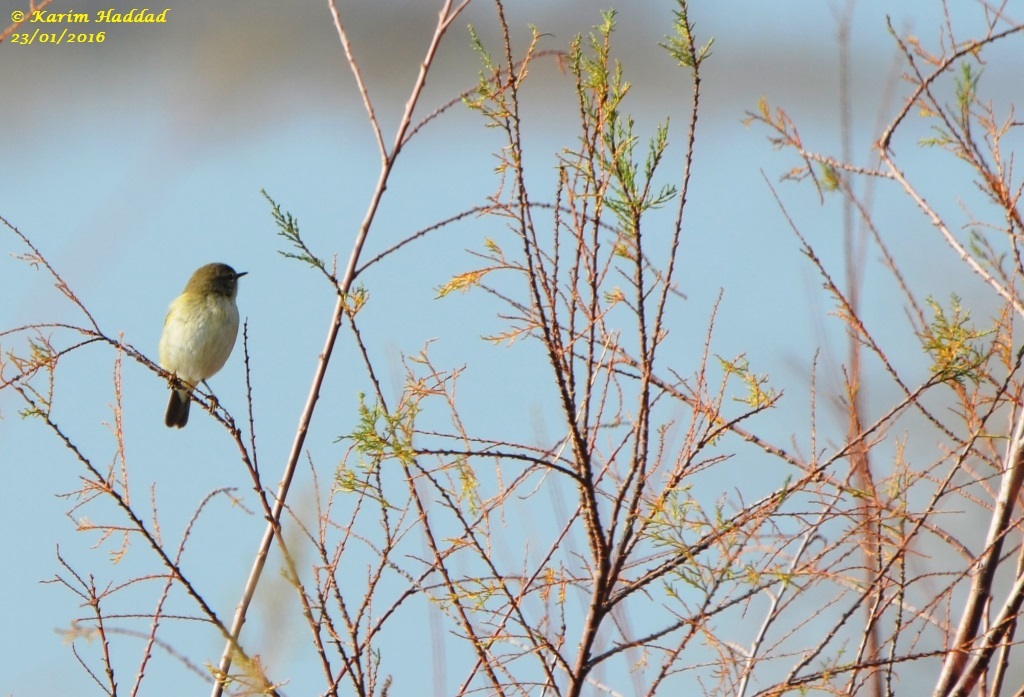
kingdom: Animalia
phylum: Chordata
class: Aves
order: Passeriformes
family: Phylloscopidae
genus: Phylloscopus
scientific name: Phylloscopus collybita
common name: Common chiffchaff
